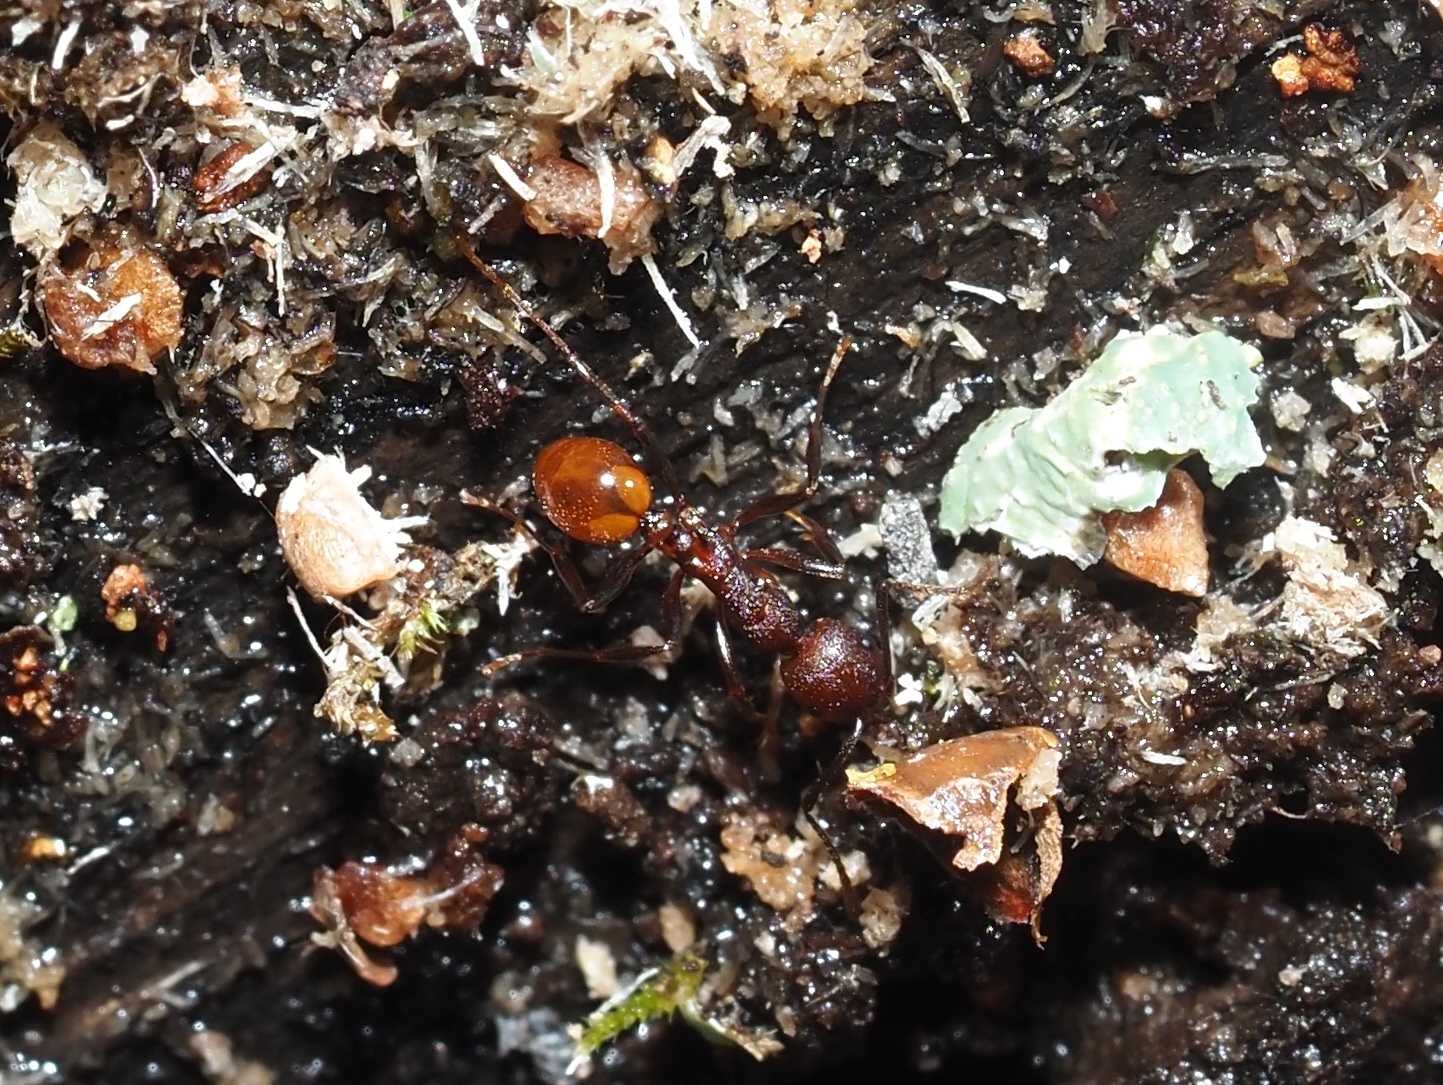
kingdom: Animalia
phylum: Arthropoda
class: Insecta
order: Hymenoptera
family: Formicidae
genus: Aphaenogaster
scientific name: Aphaenogaster tennesseensis
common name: Tennessee thread-waisted ant
